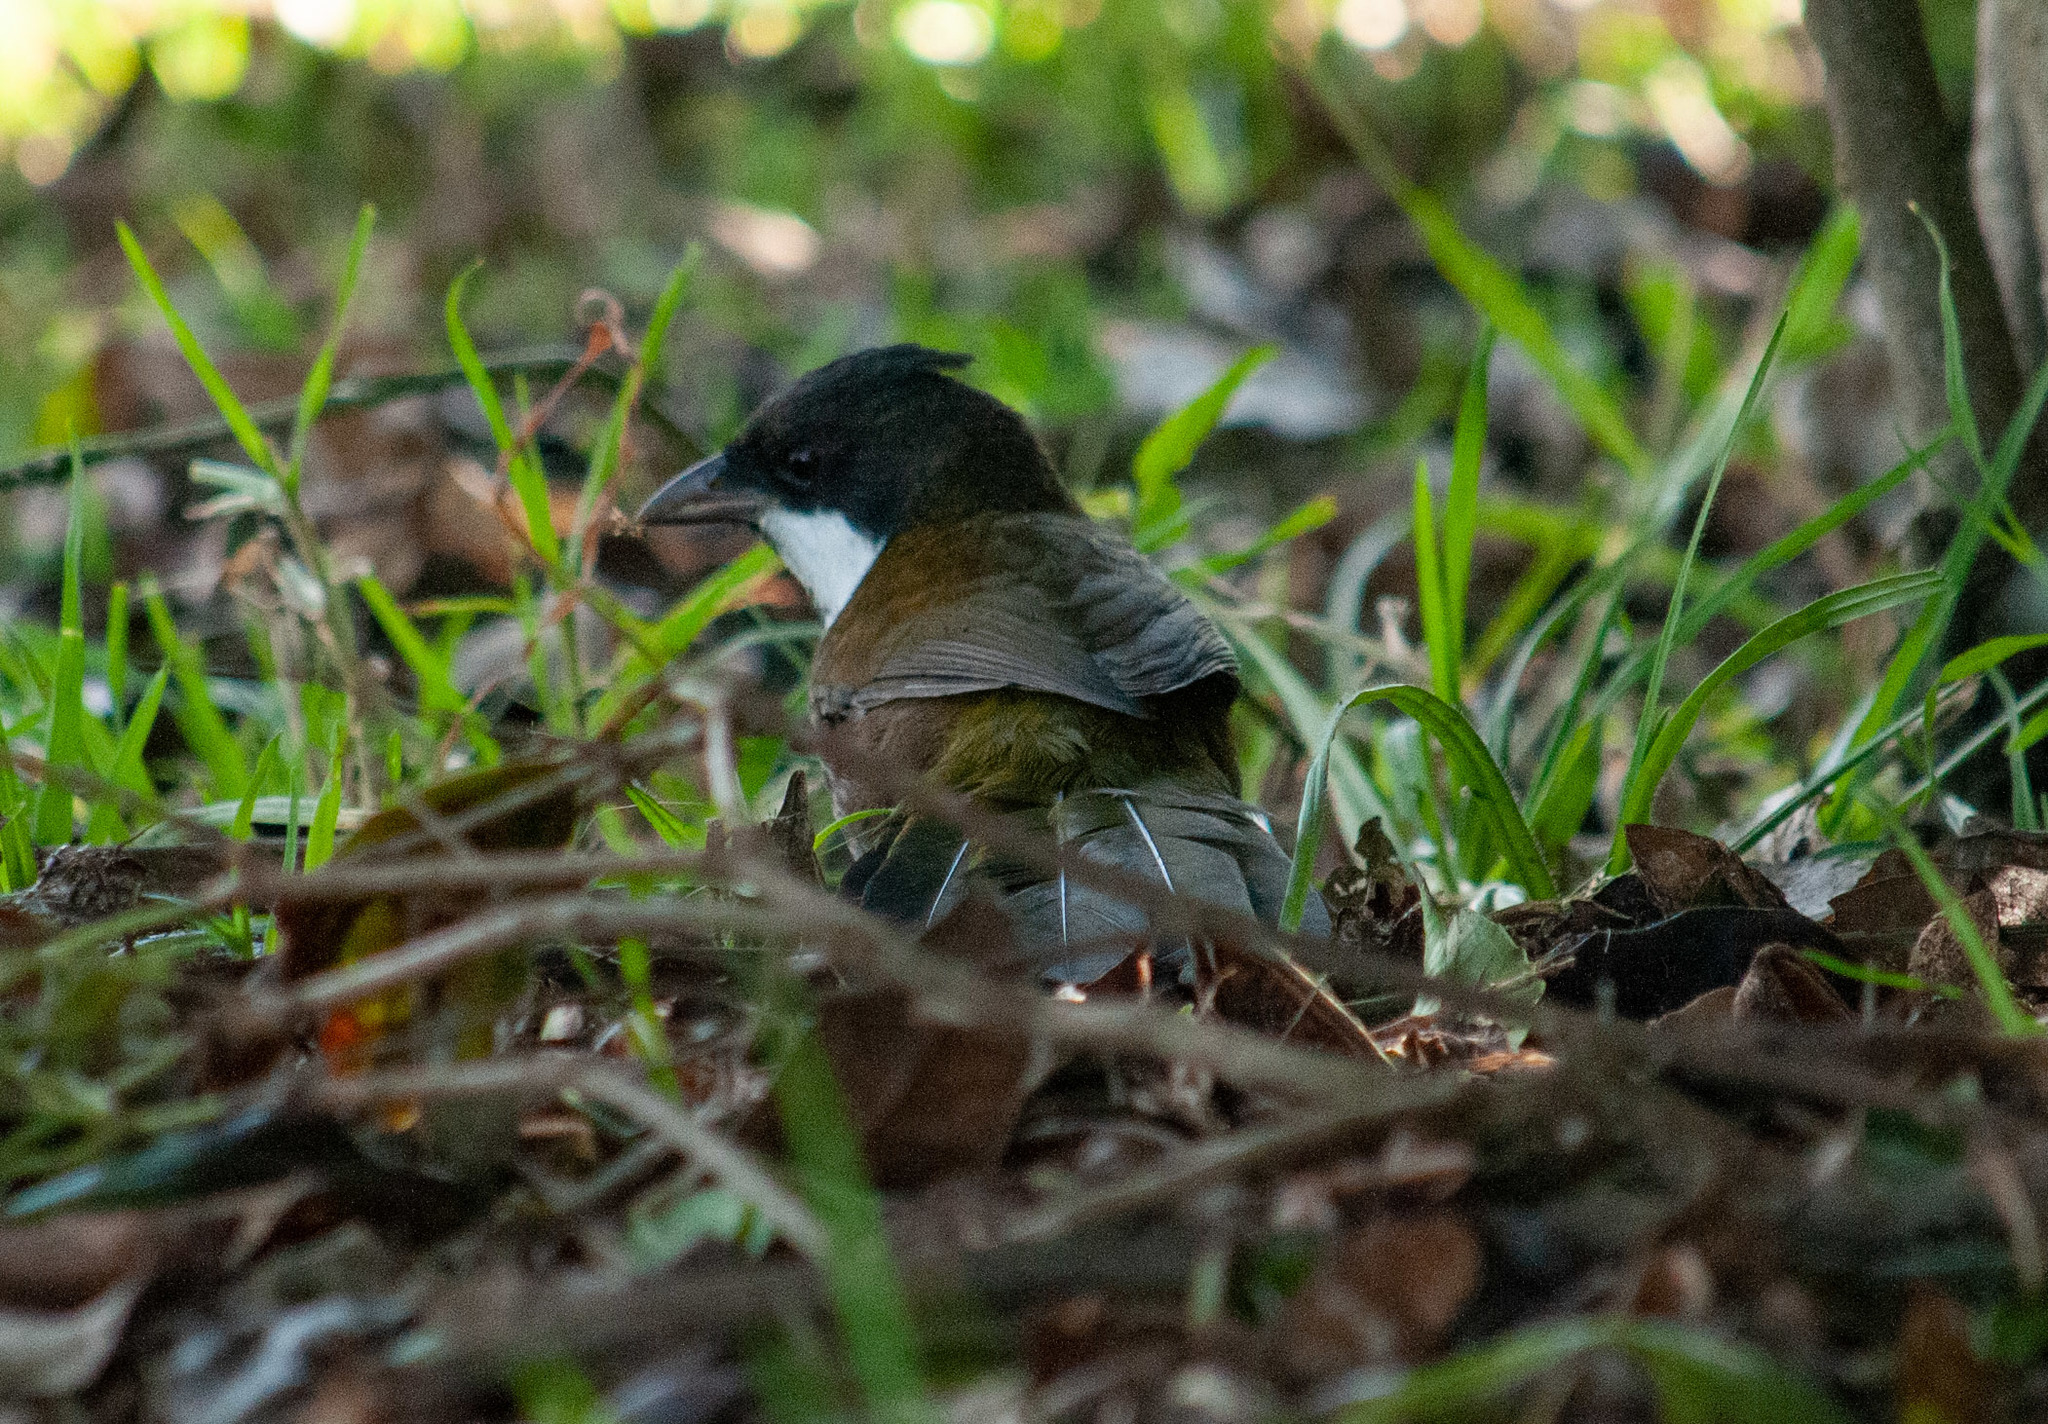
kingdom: Animalia
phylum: Chordata
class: Aves
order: Passeriformes
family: Psophodidae
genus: Psophodes
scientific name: Psophodes olivaceus
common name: Eastern whipbird
